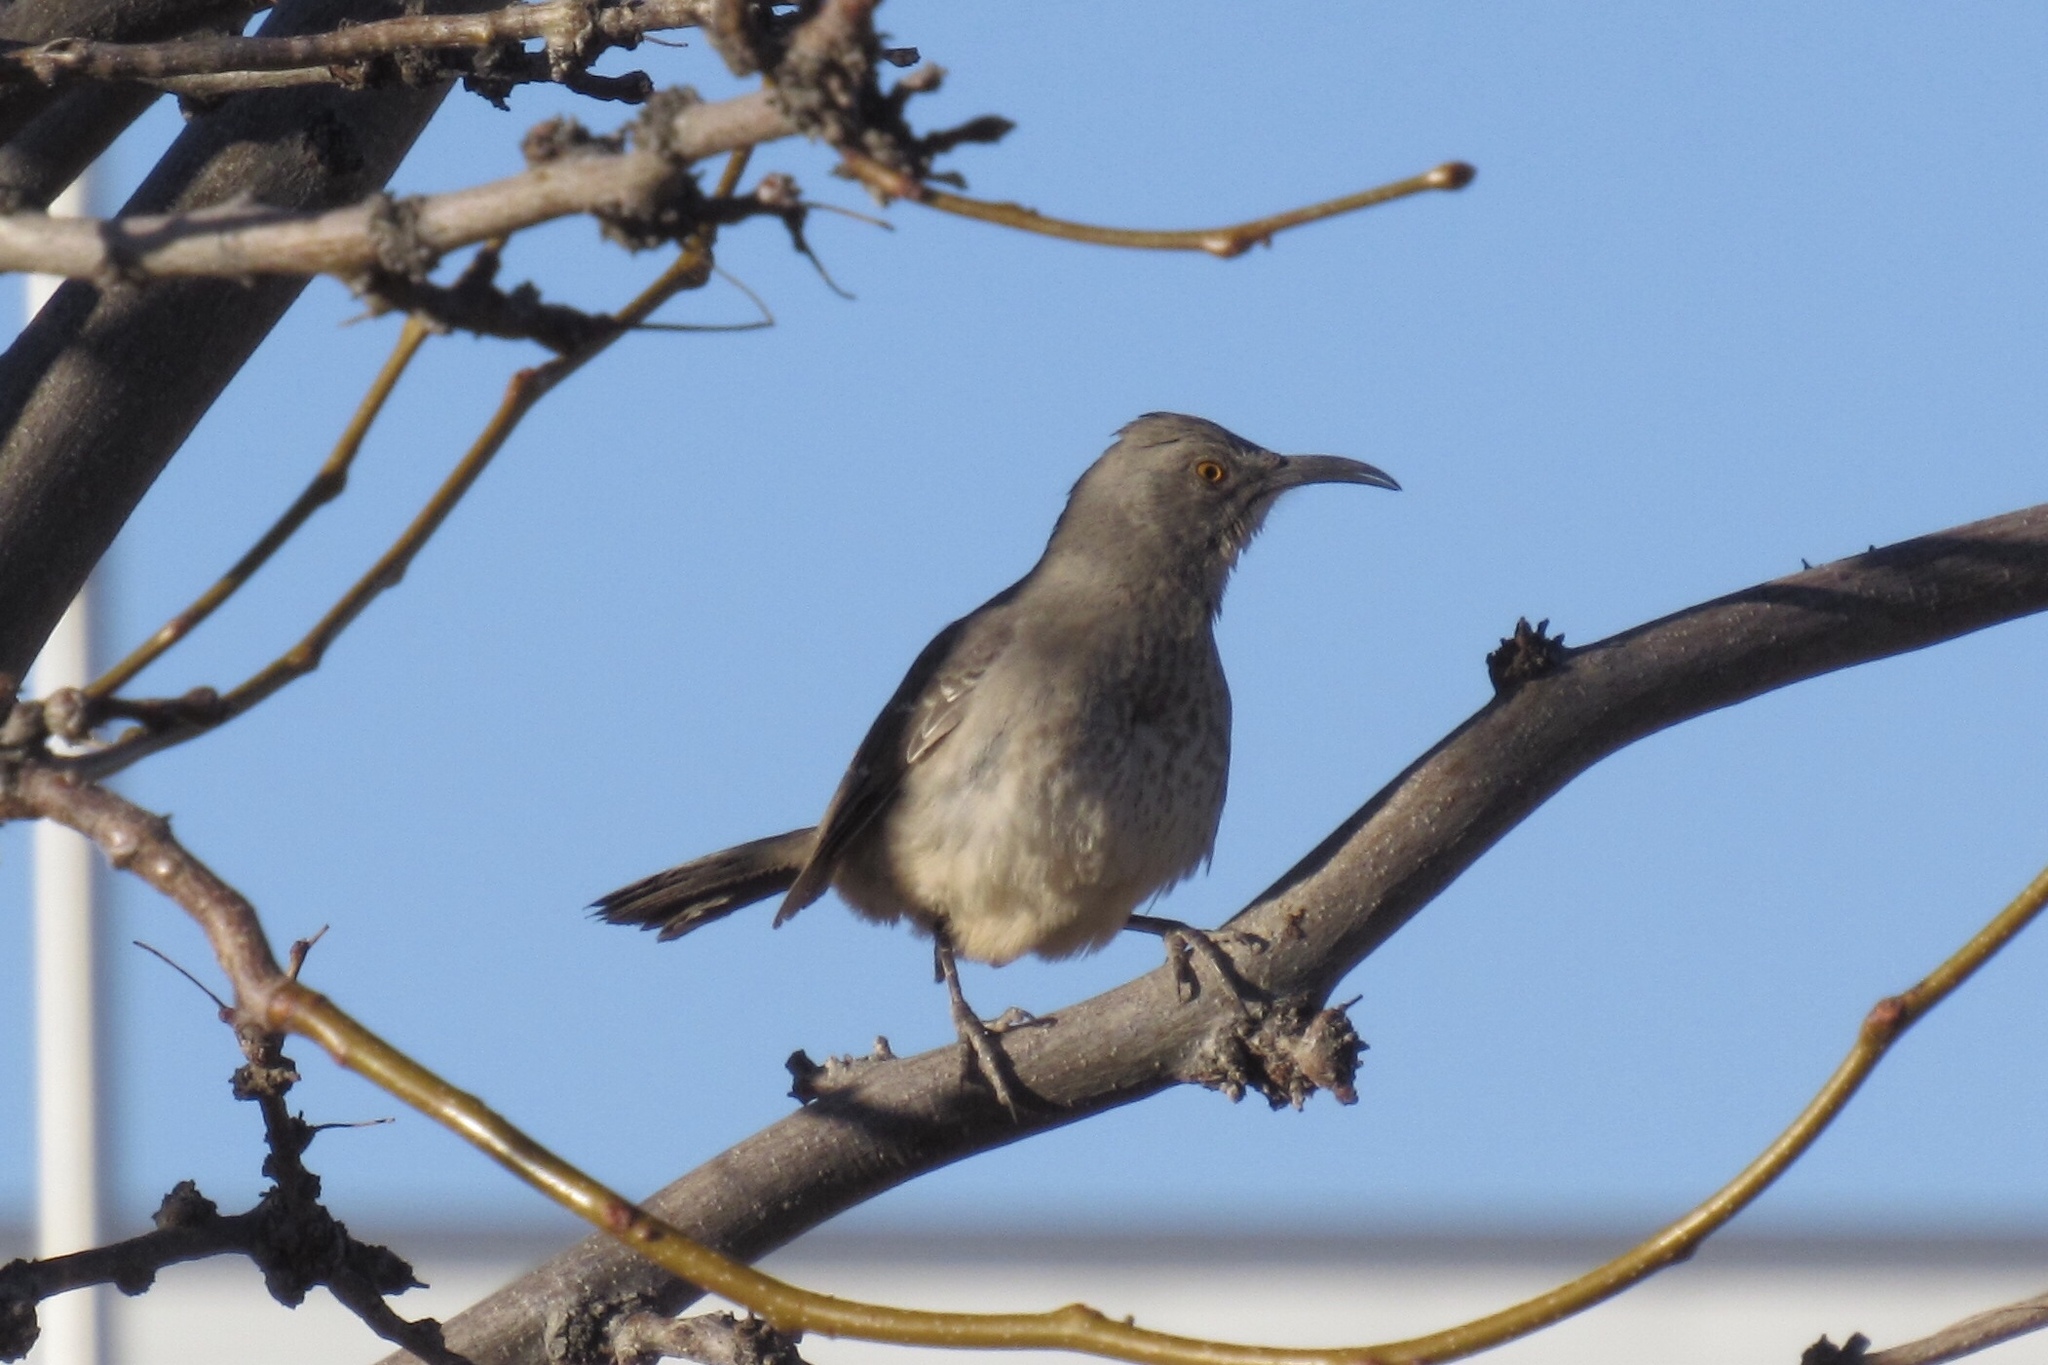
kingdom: Animalia
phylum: Chordata
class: Aves
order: Passeriformes
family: Mimidae
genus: Toxostoma
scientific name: Toxostoma curvirostre
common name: Curve-billed thrasher
